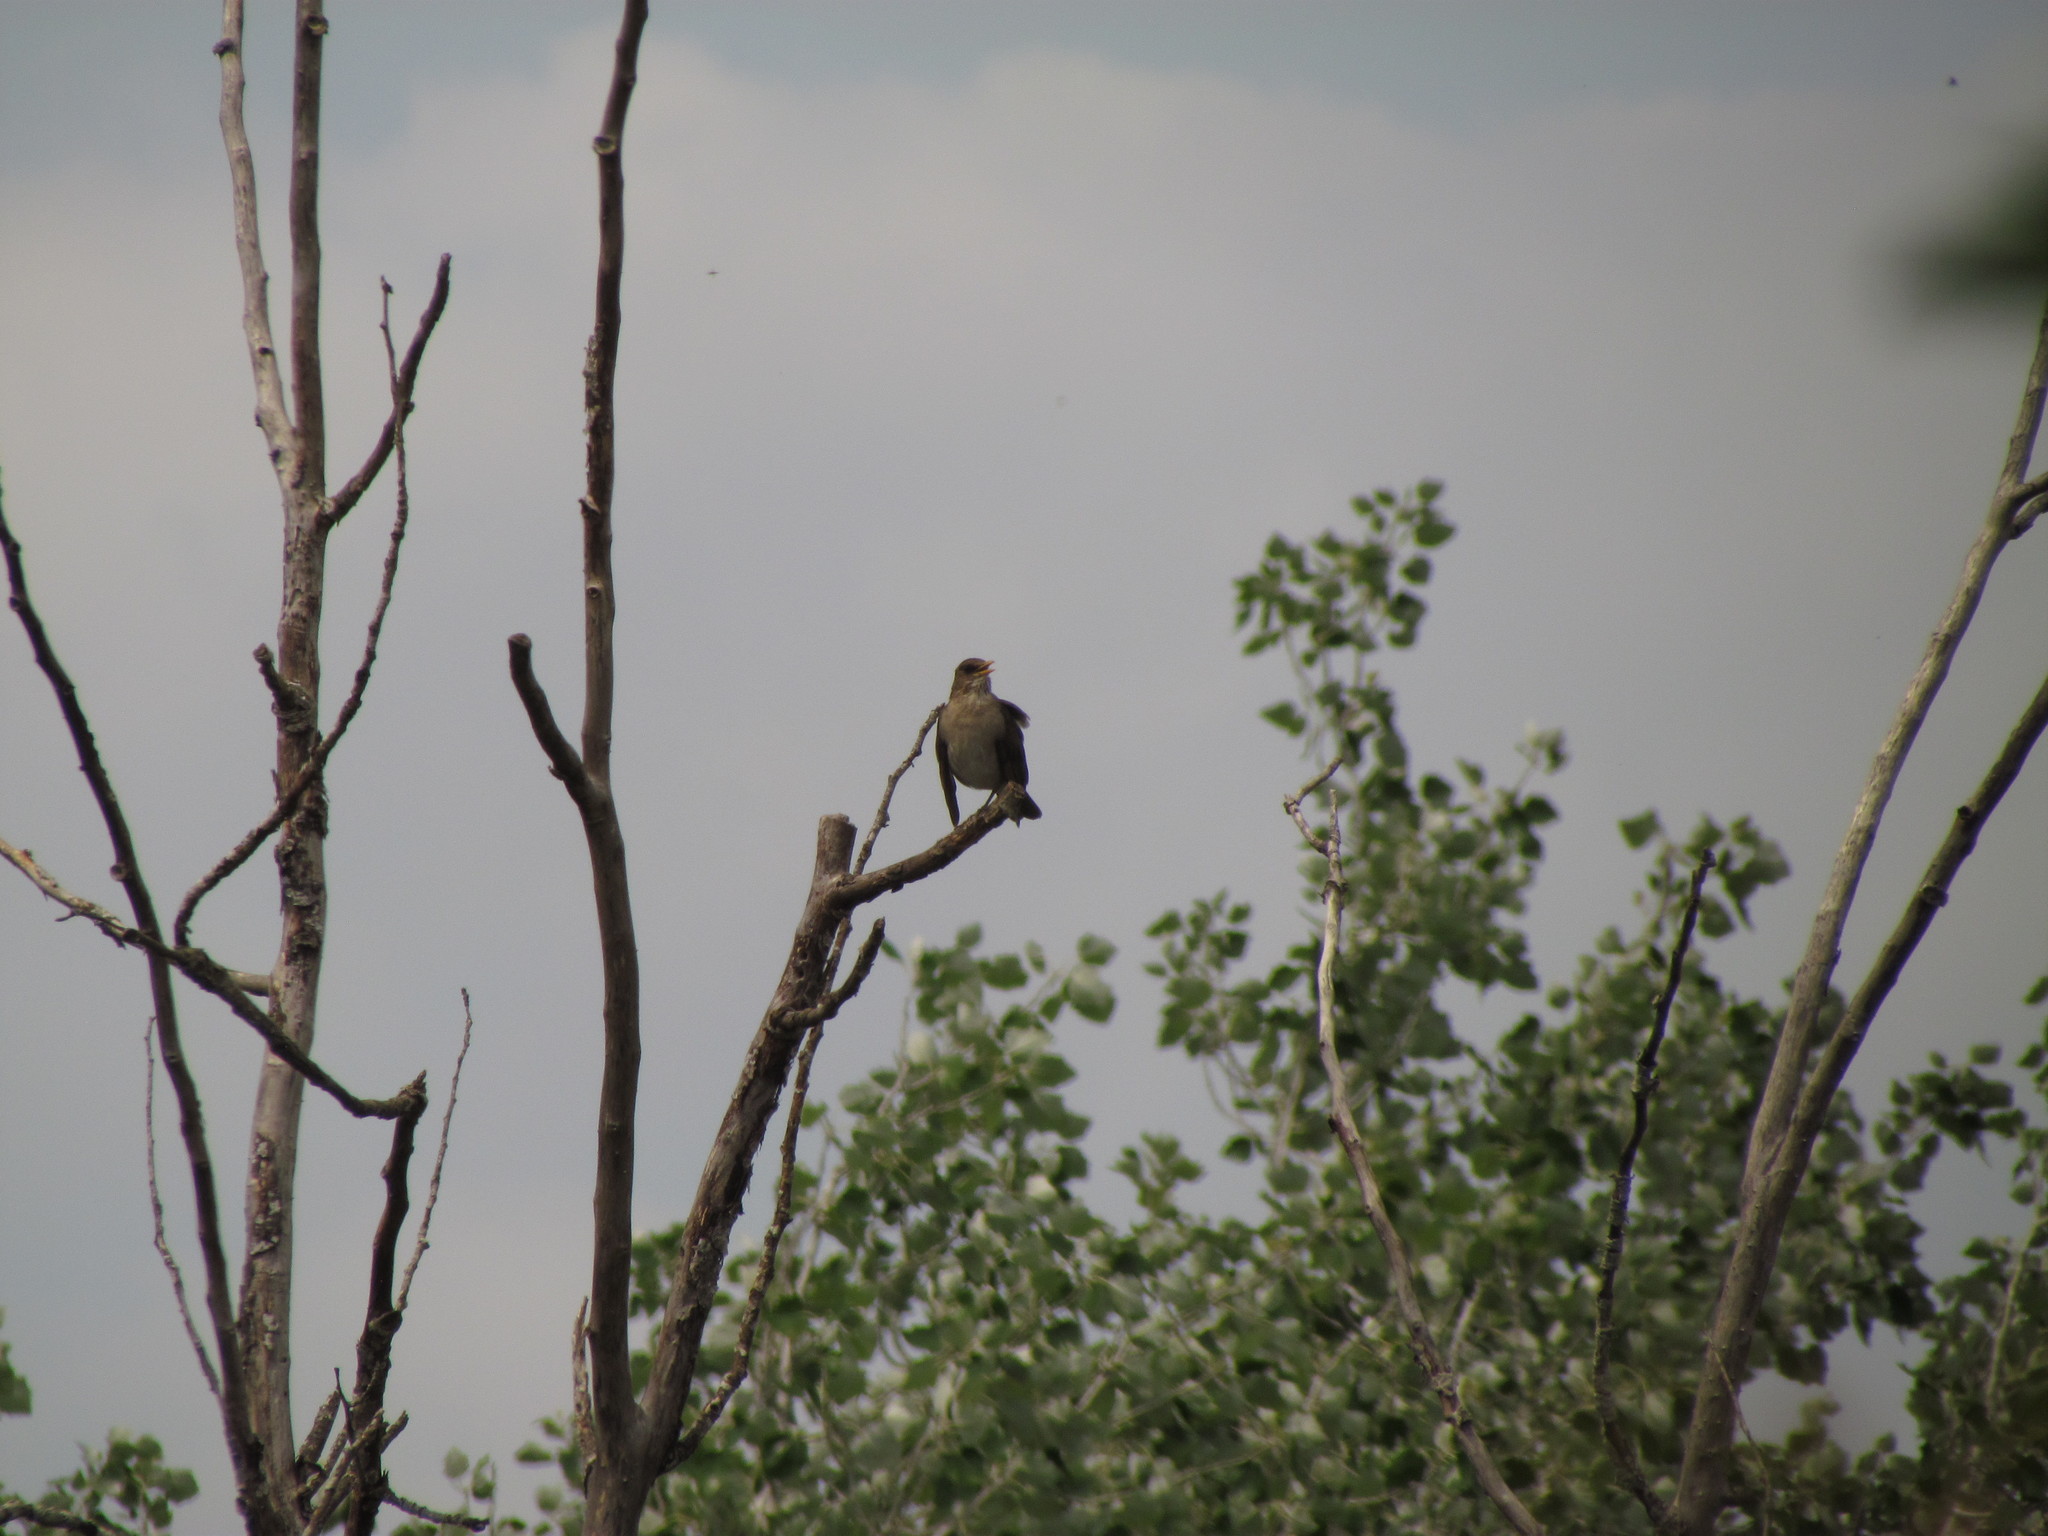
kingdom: Animalia
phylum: Chordata
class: Aves
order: Passeriformes
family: Turdidae
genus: Turdus
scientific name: Turdus amaurochalinus
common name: Creamy-bellied thrush
